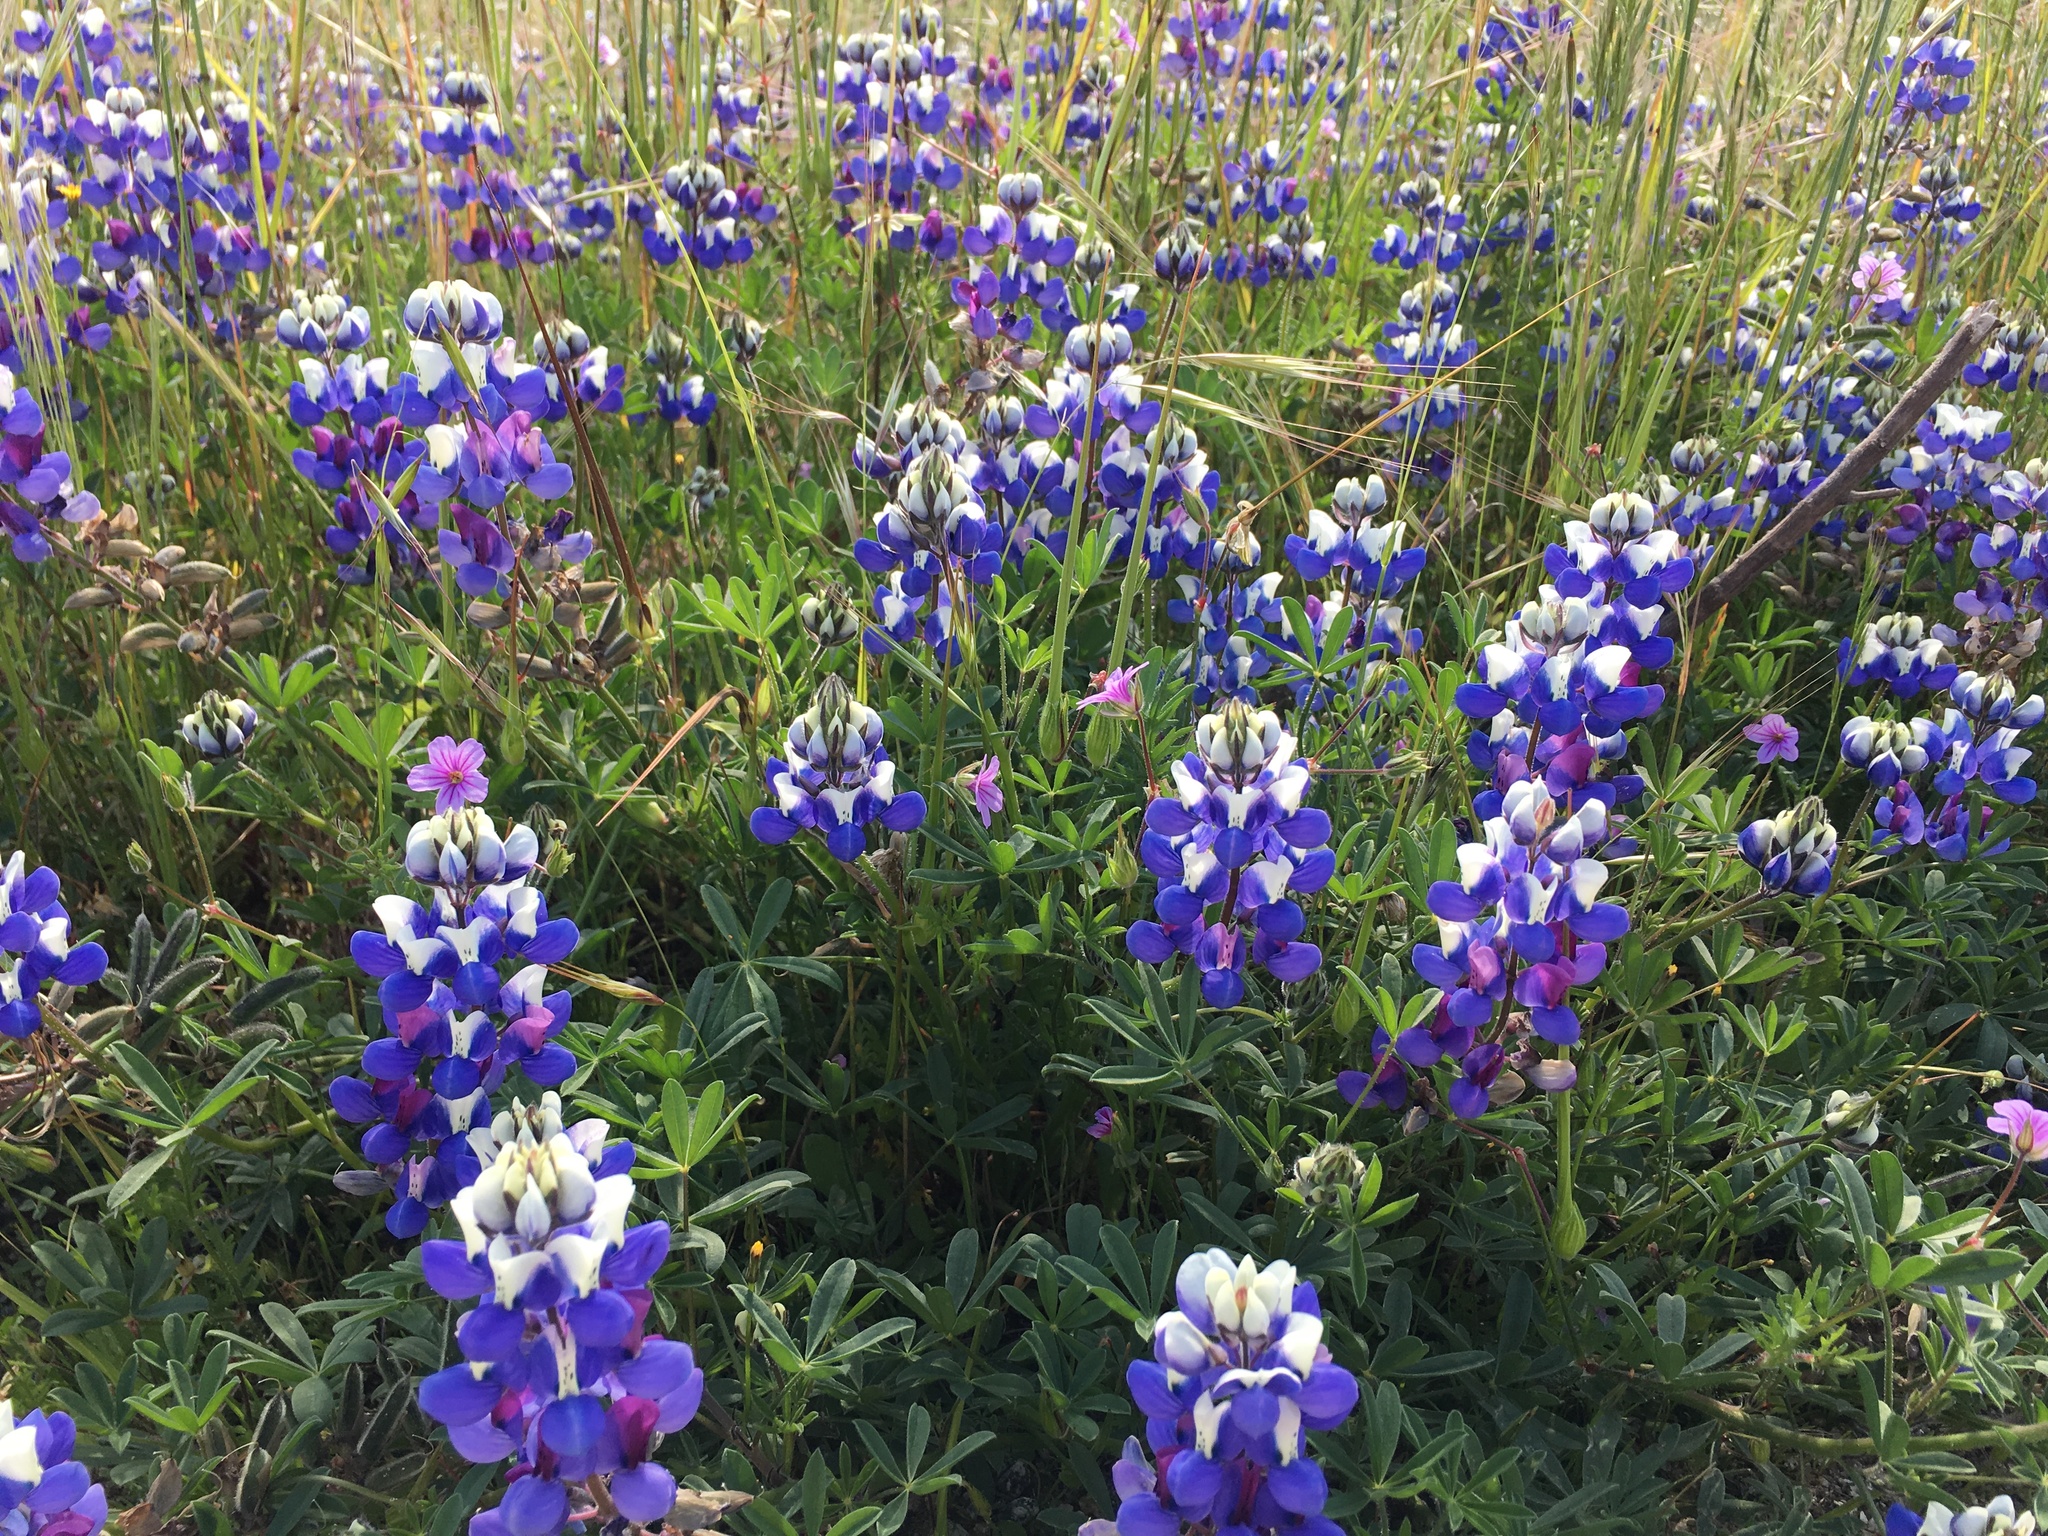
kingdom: Plantae
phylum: Tracheophyta
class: Magnoliopsida
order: Fabales
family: Fabaceae
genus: Lupinus
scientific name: Lupinus nanus
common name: Orean blue lupin
